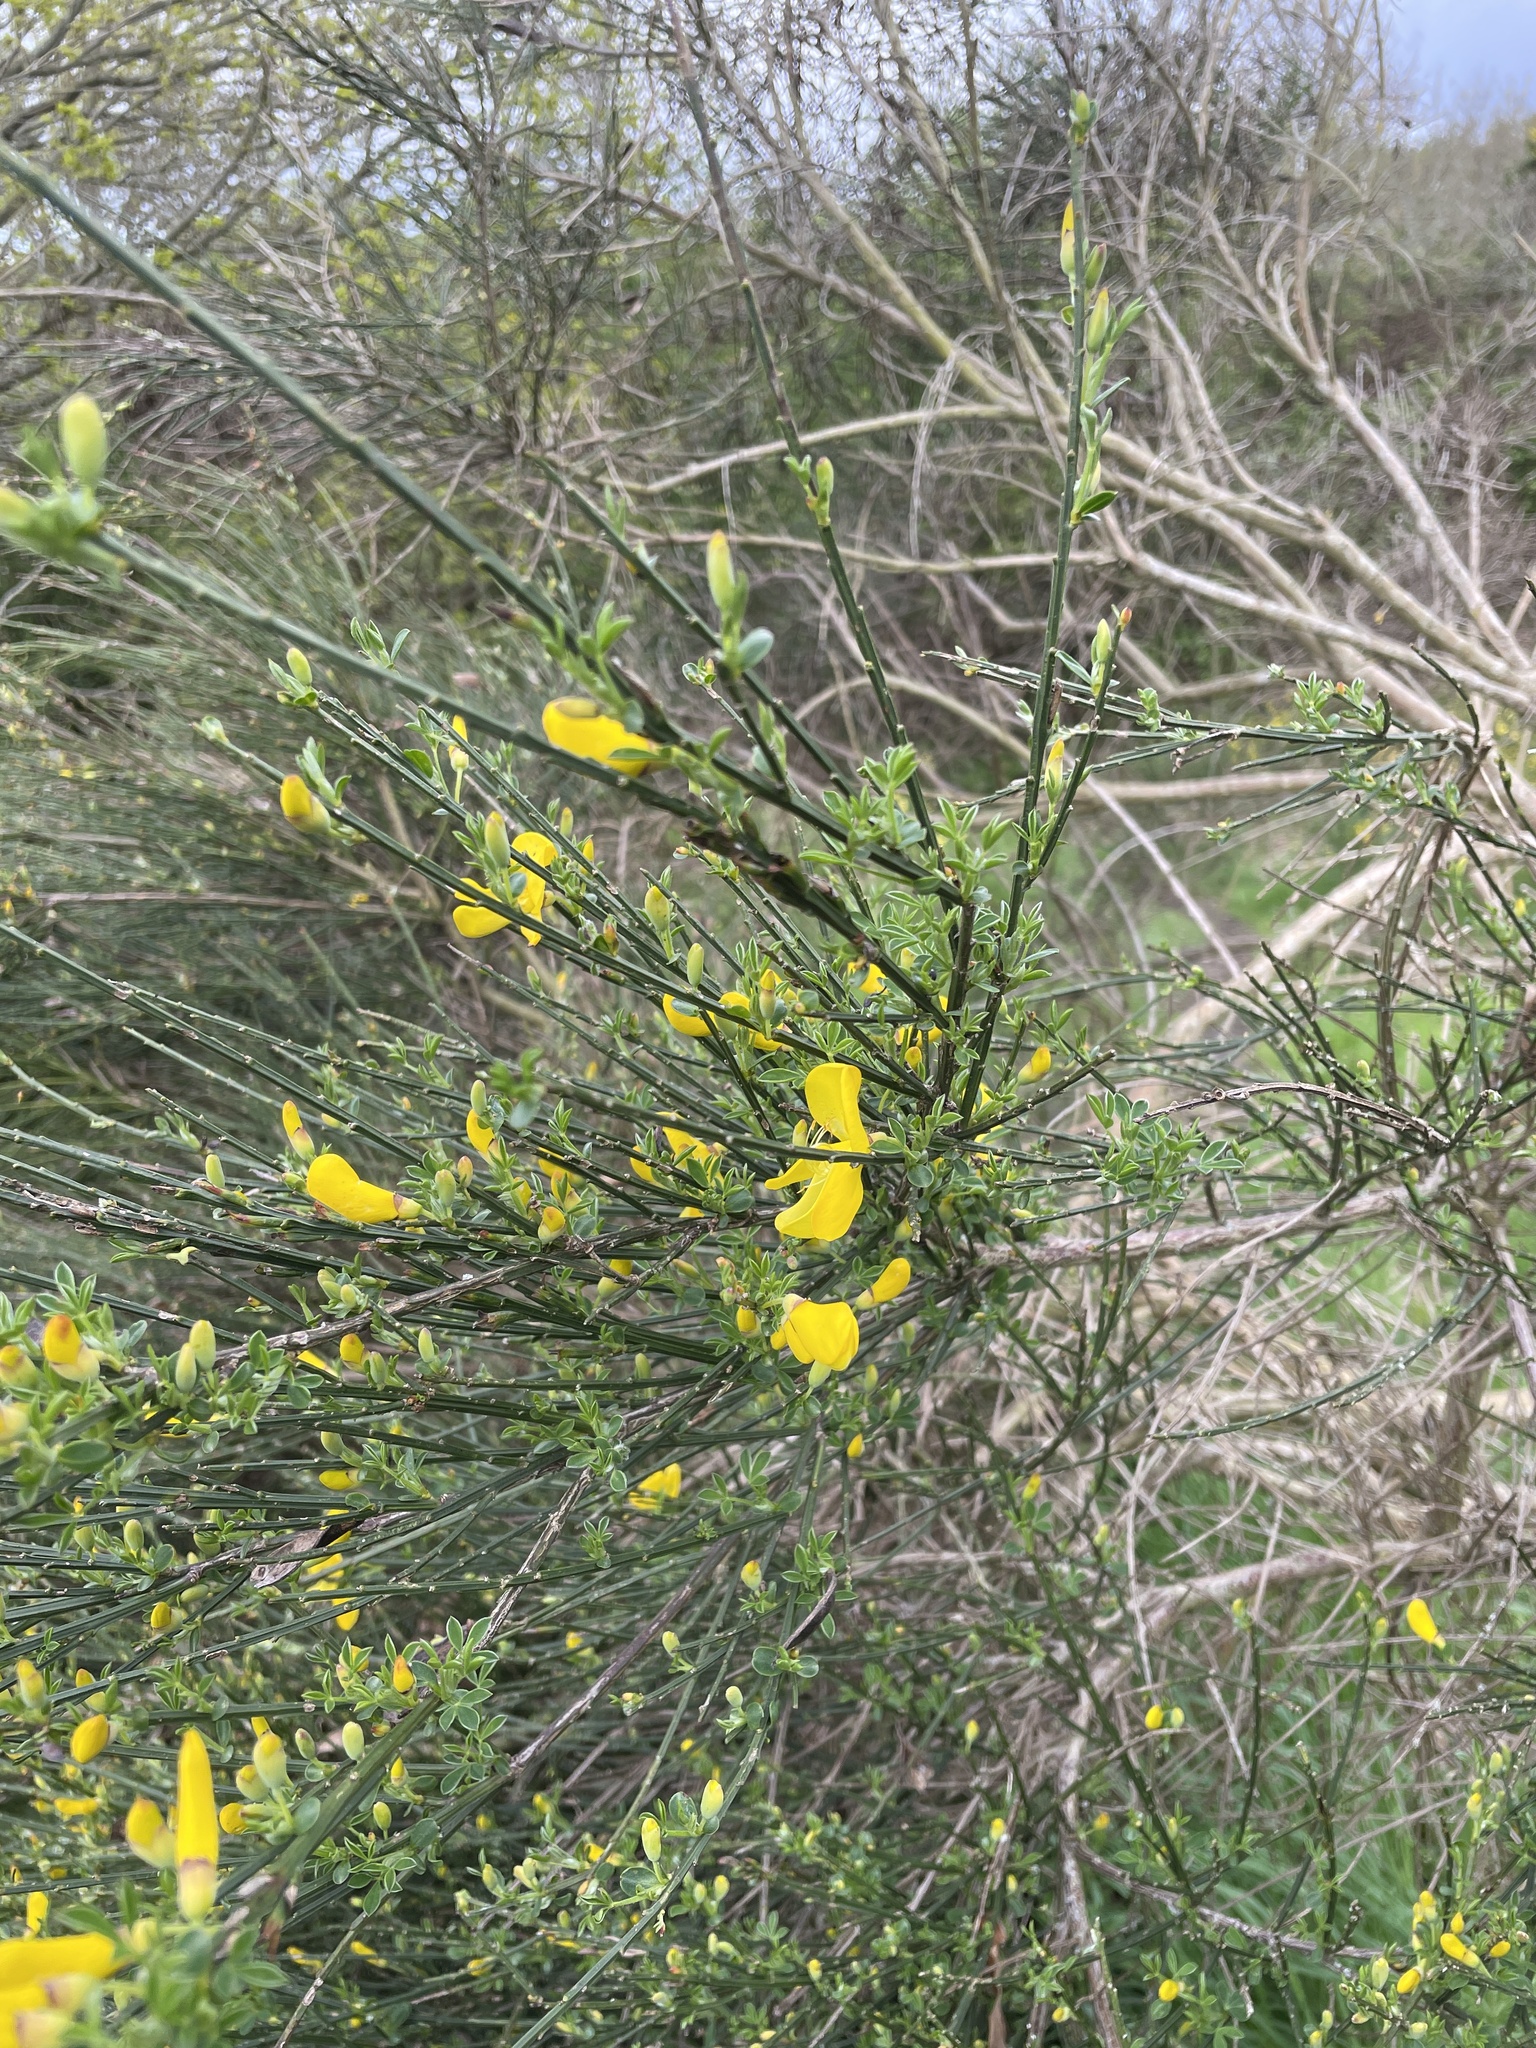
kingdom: Plantae
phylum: Tracheophyta
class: Magnoliopsida
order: Fabales
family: Fabaceae
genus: Cytisus
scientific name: Cytisus scoparius
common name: Scotch broom
